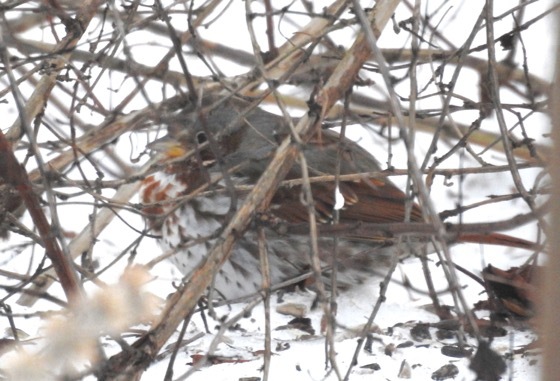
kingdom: Animalia
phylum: Chordata
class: Aves
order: Passeriformes
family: Passerellidae
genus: Passerella
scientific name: Passerella iliaca
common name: Fox sparrow
